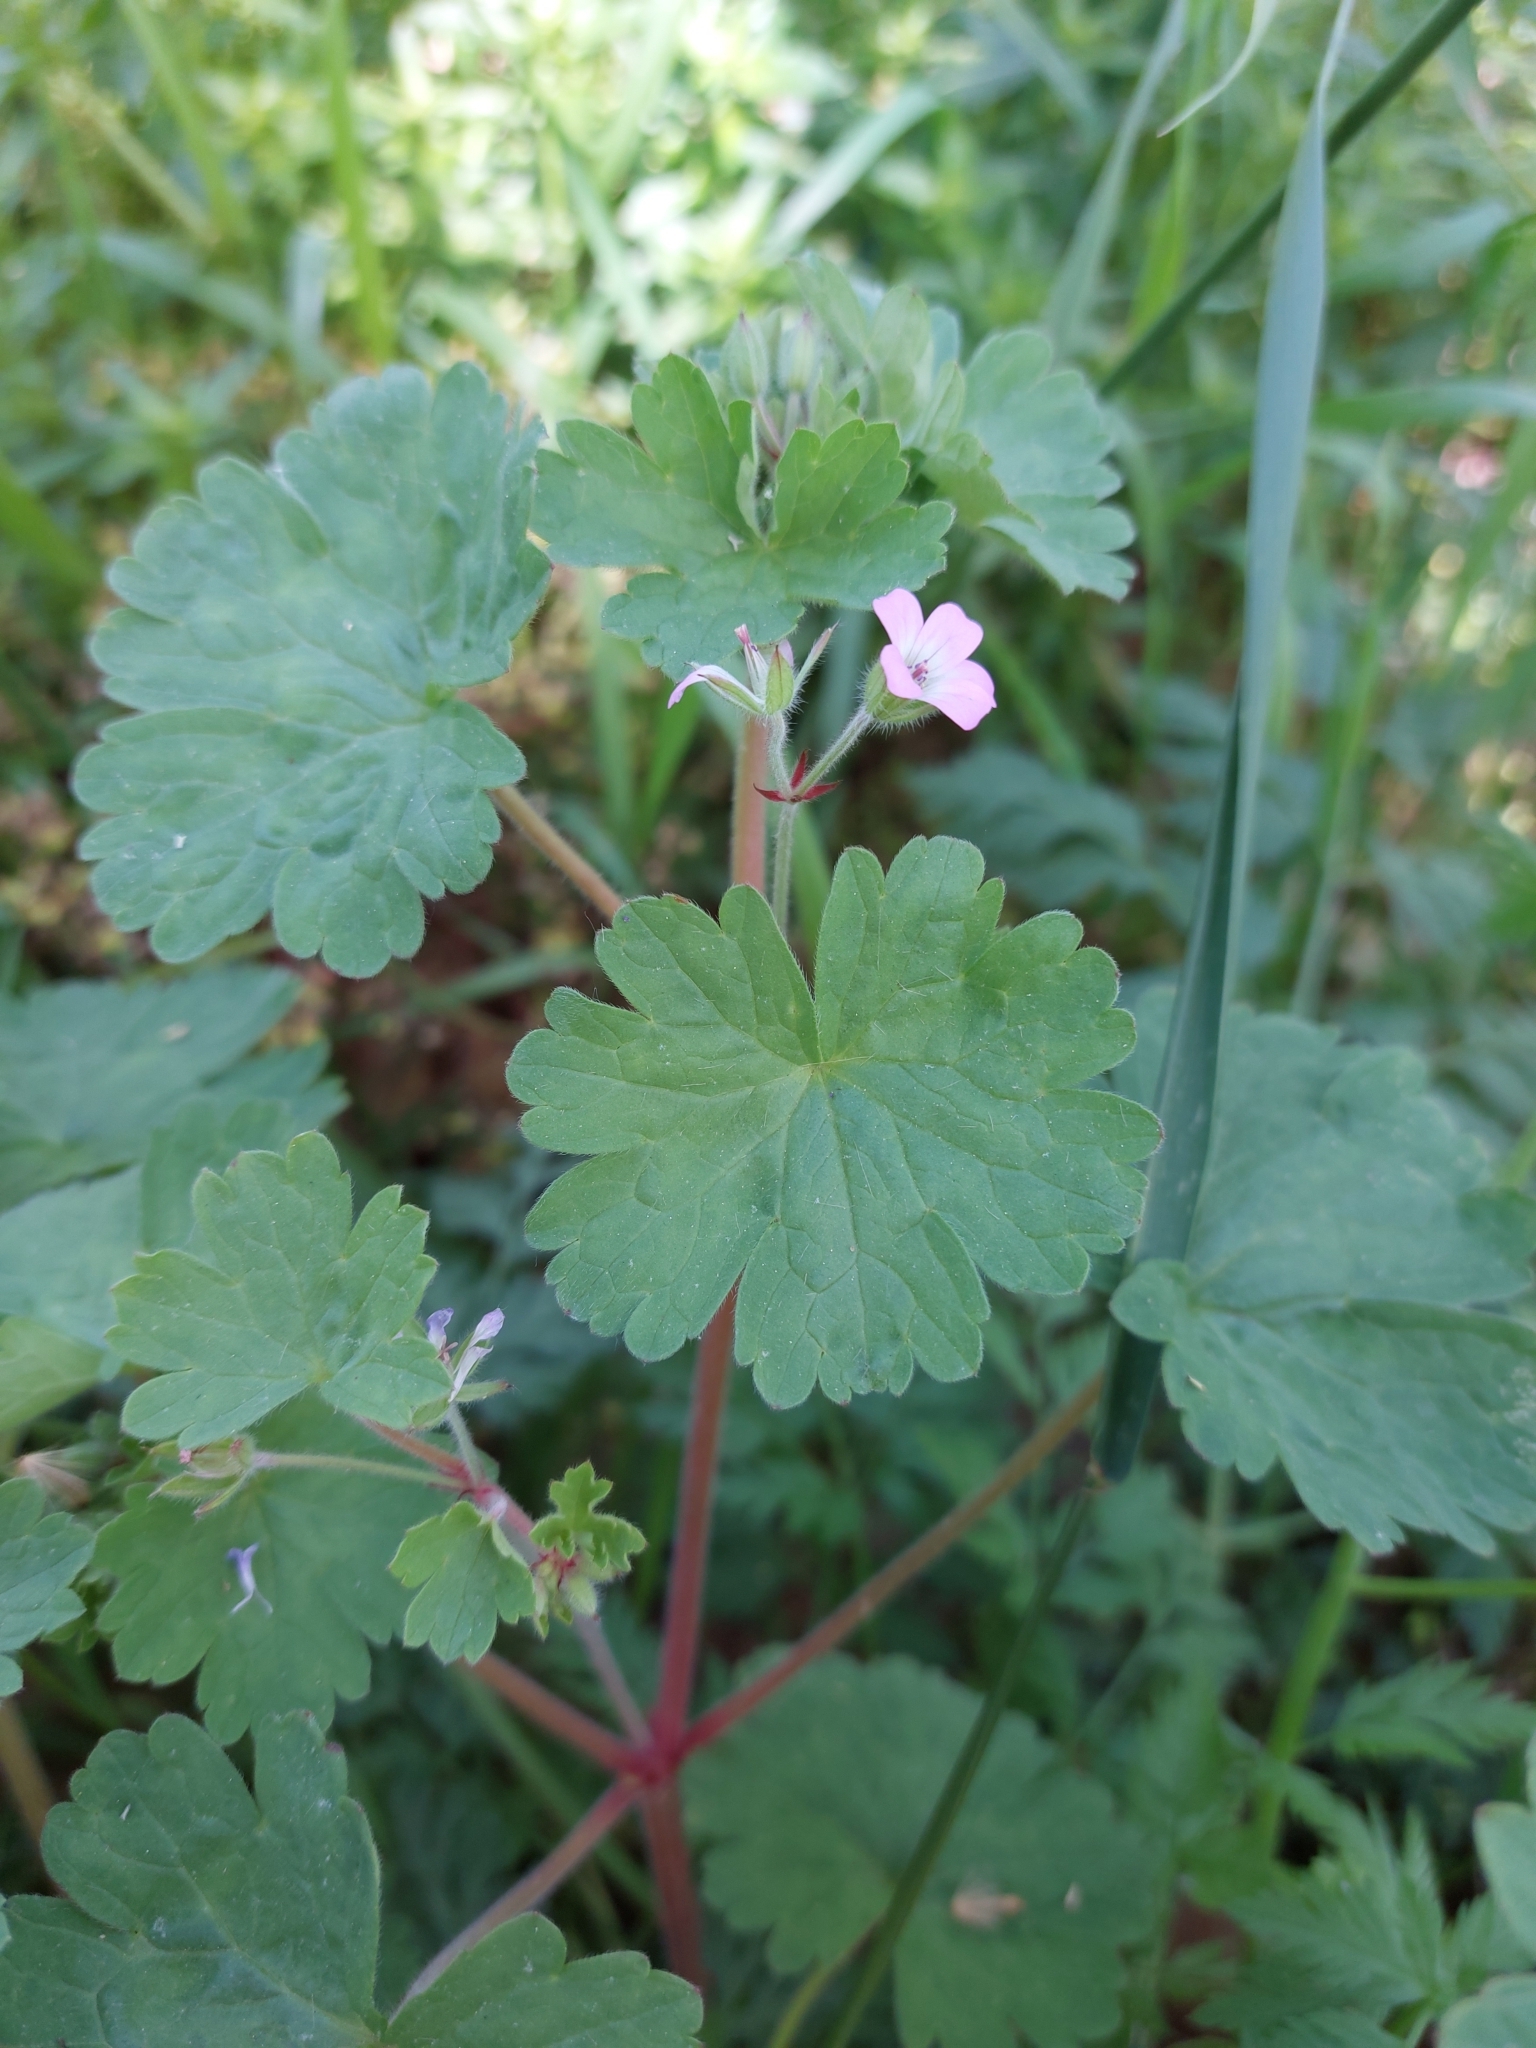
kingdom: Plantae
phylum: Tracheophyta
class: Magnoliopsida
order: Geraniales
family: Geraniaceae
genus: Geranium
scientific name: Geranium rotundifolium
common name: Round-leaved crane's-bill
